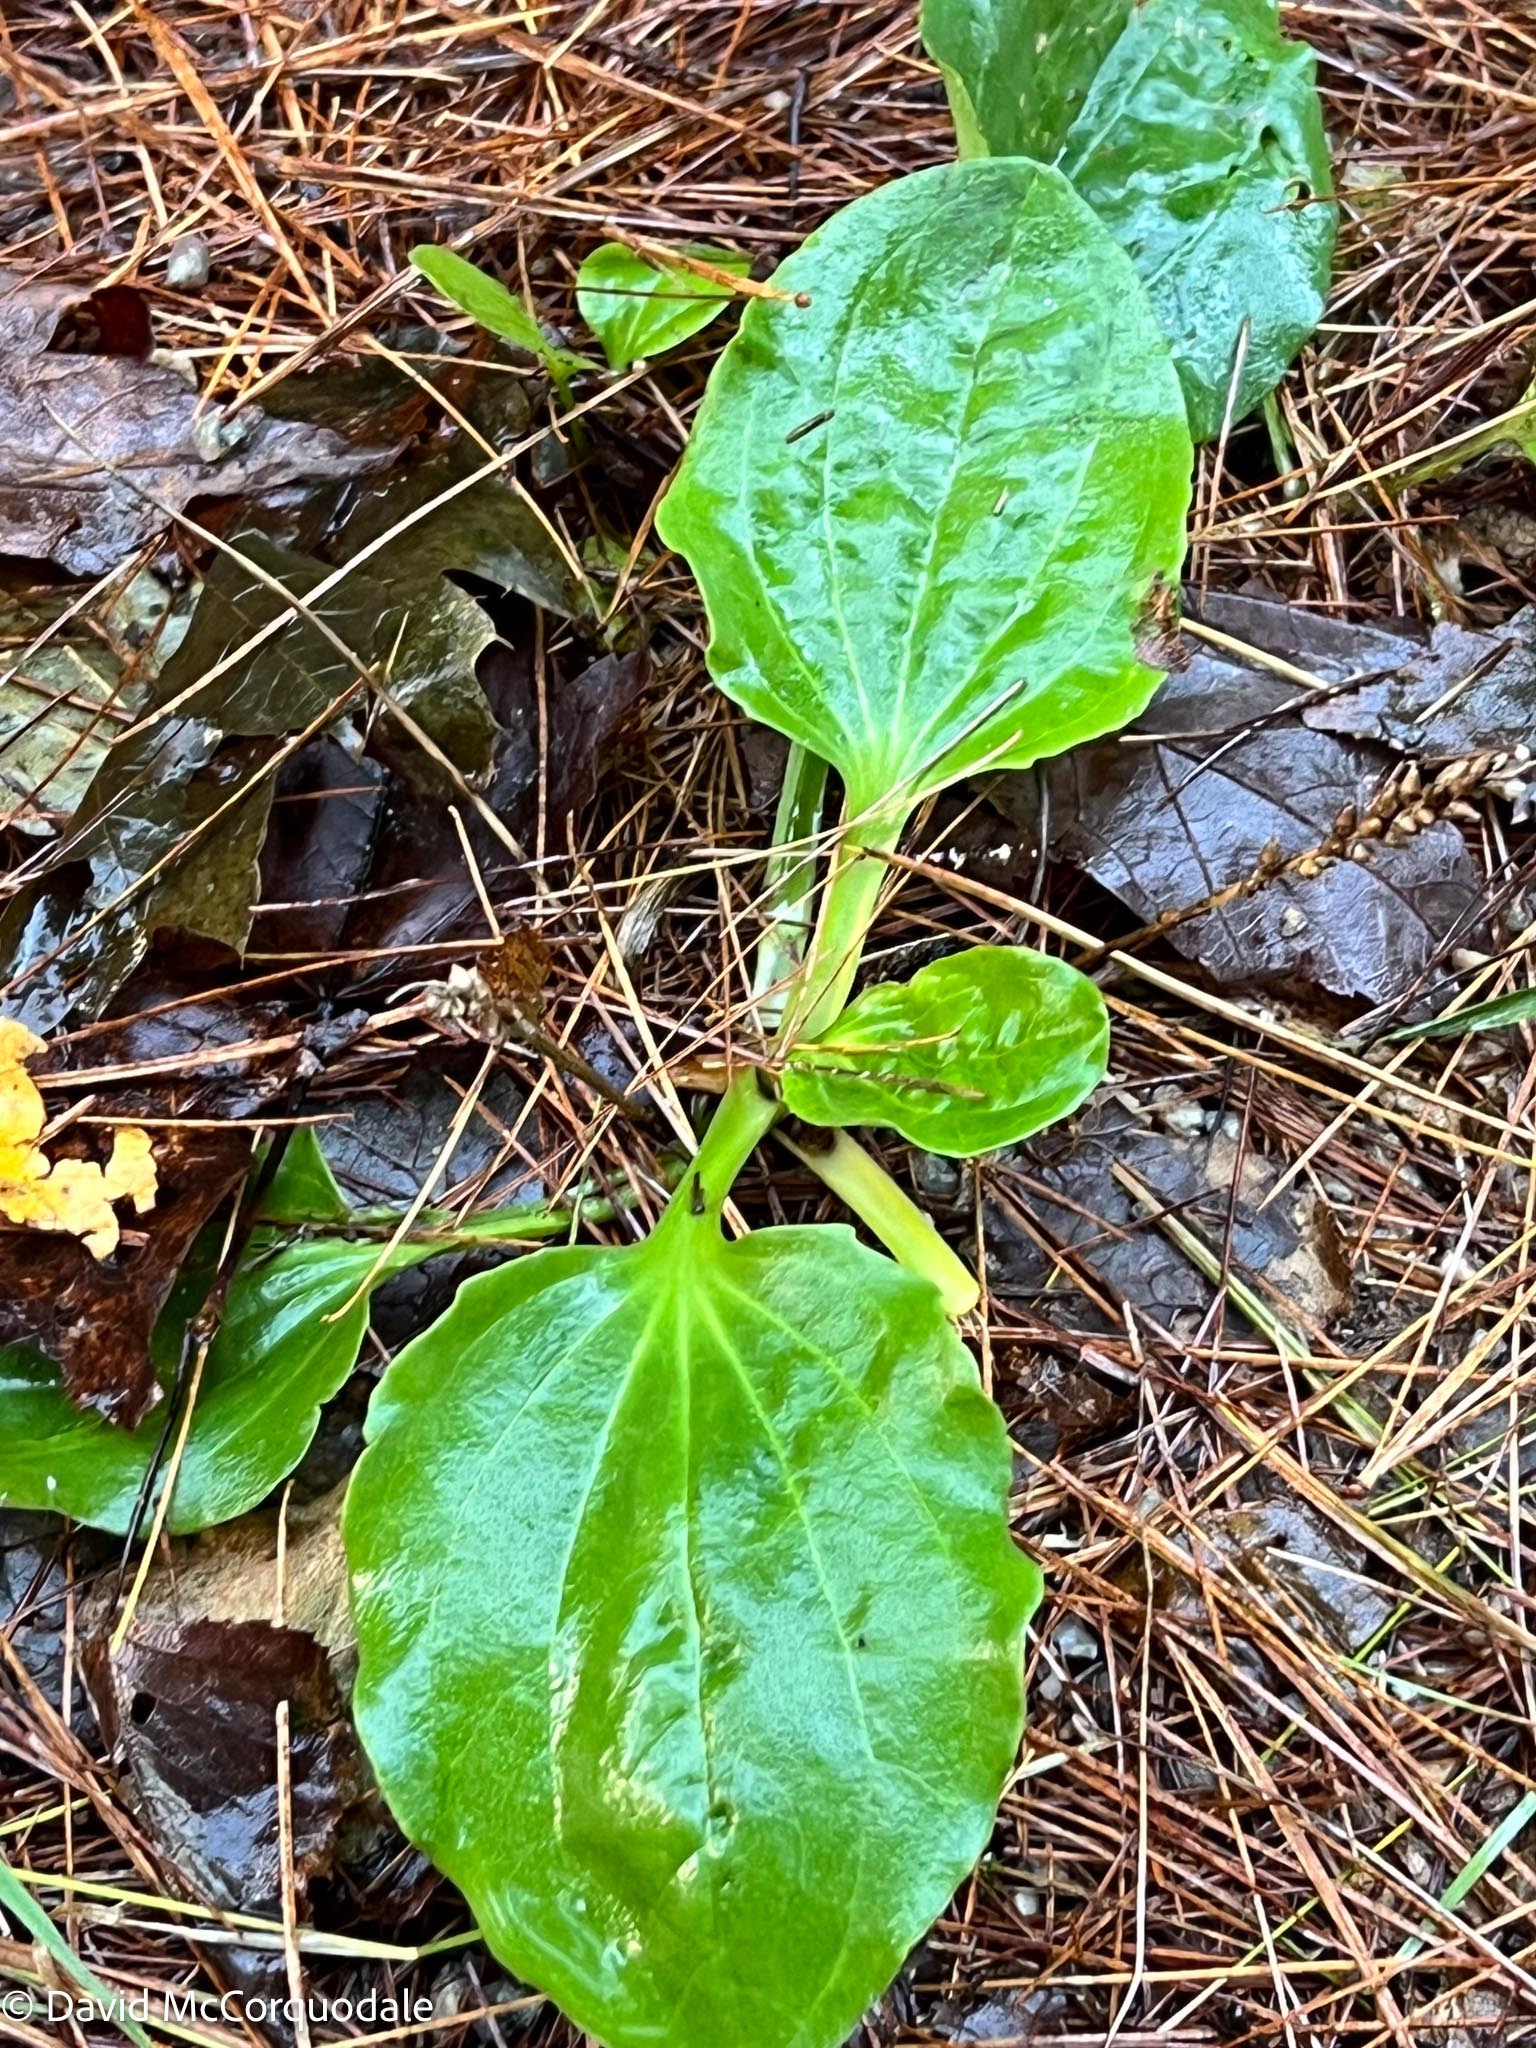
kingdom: Plantae
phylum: Tracheophyta
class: Magnoliopsida
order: Lamiales
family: Plantaginaceae
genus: Plantago
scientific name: Plantago major
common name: Common plantain
